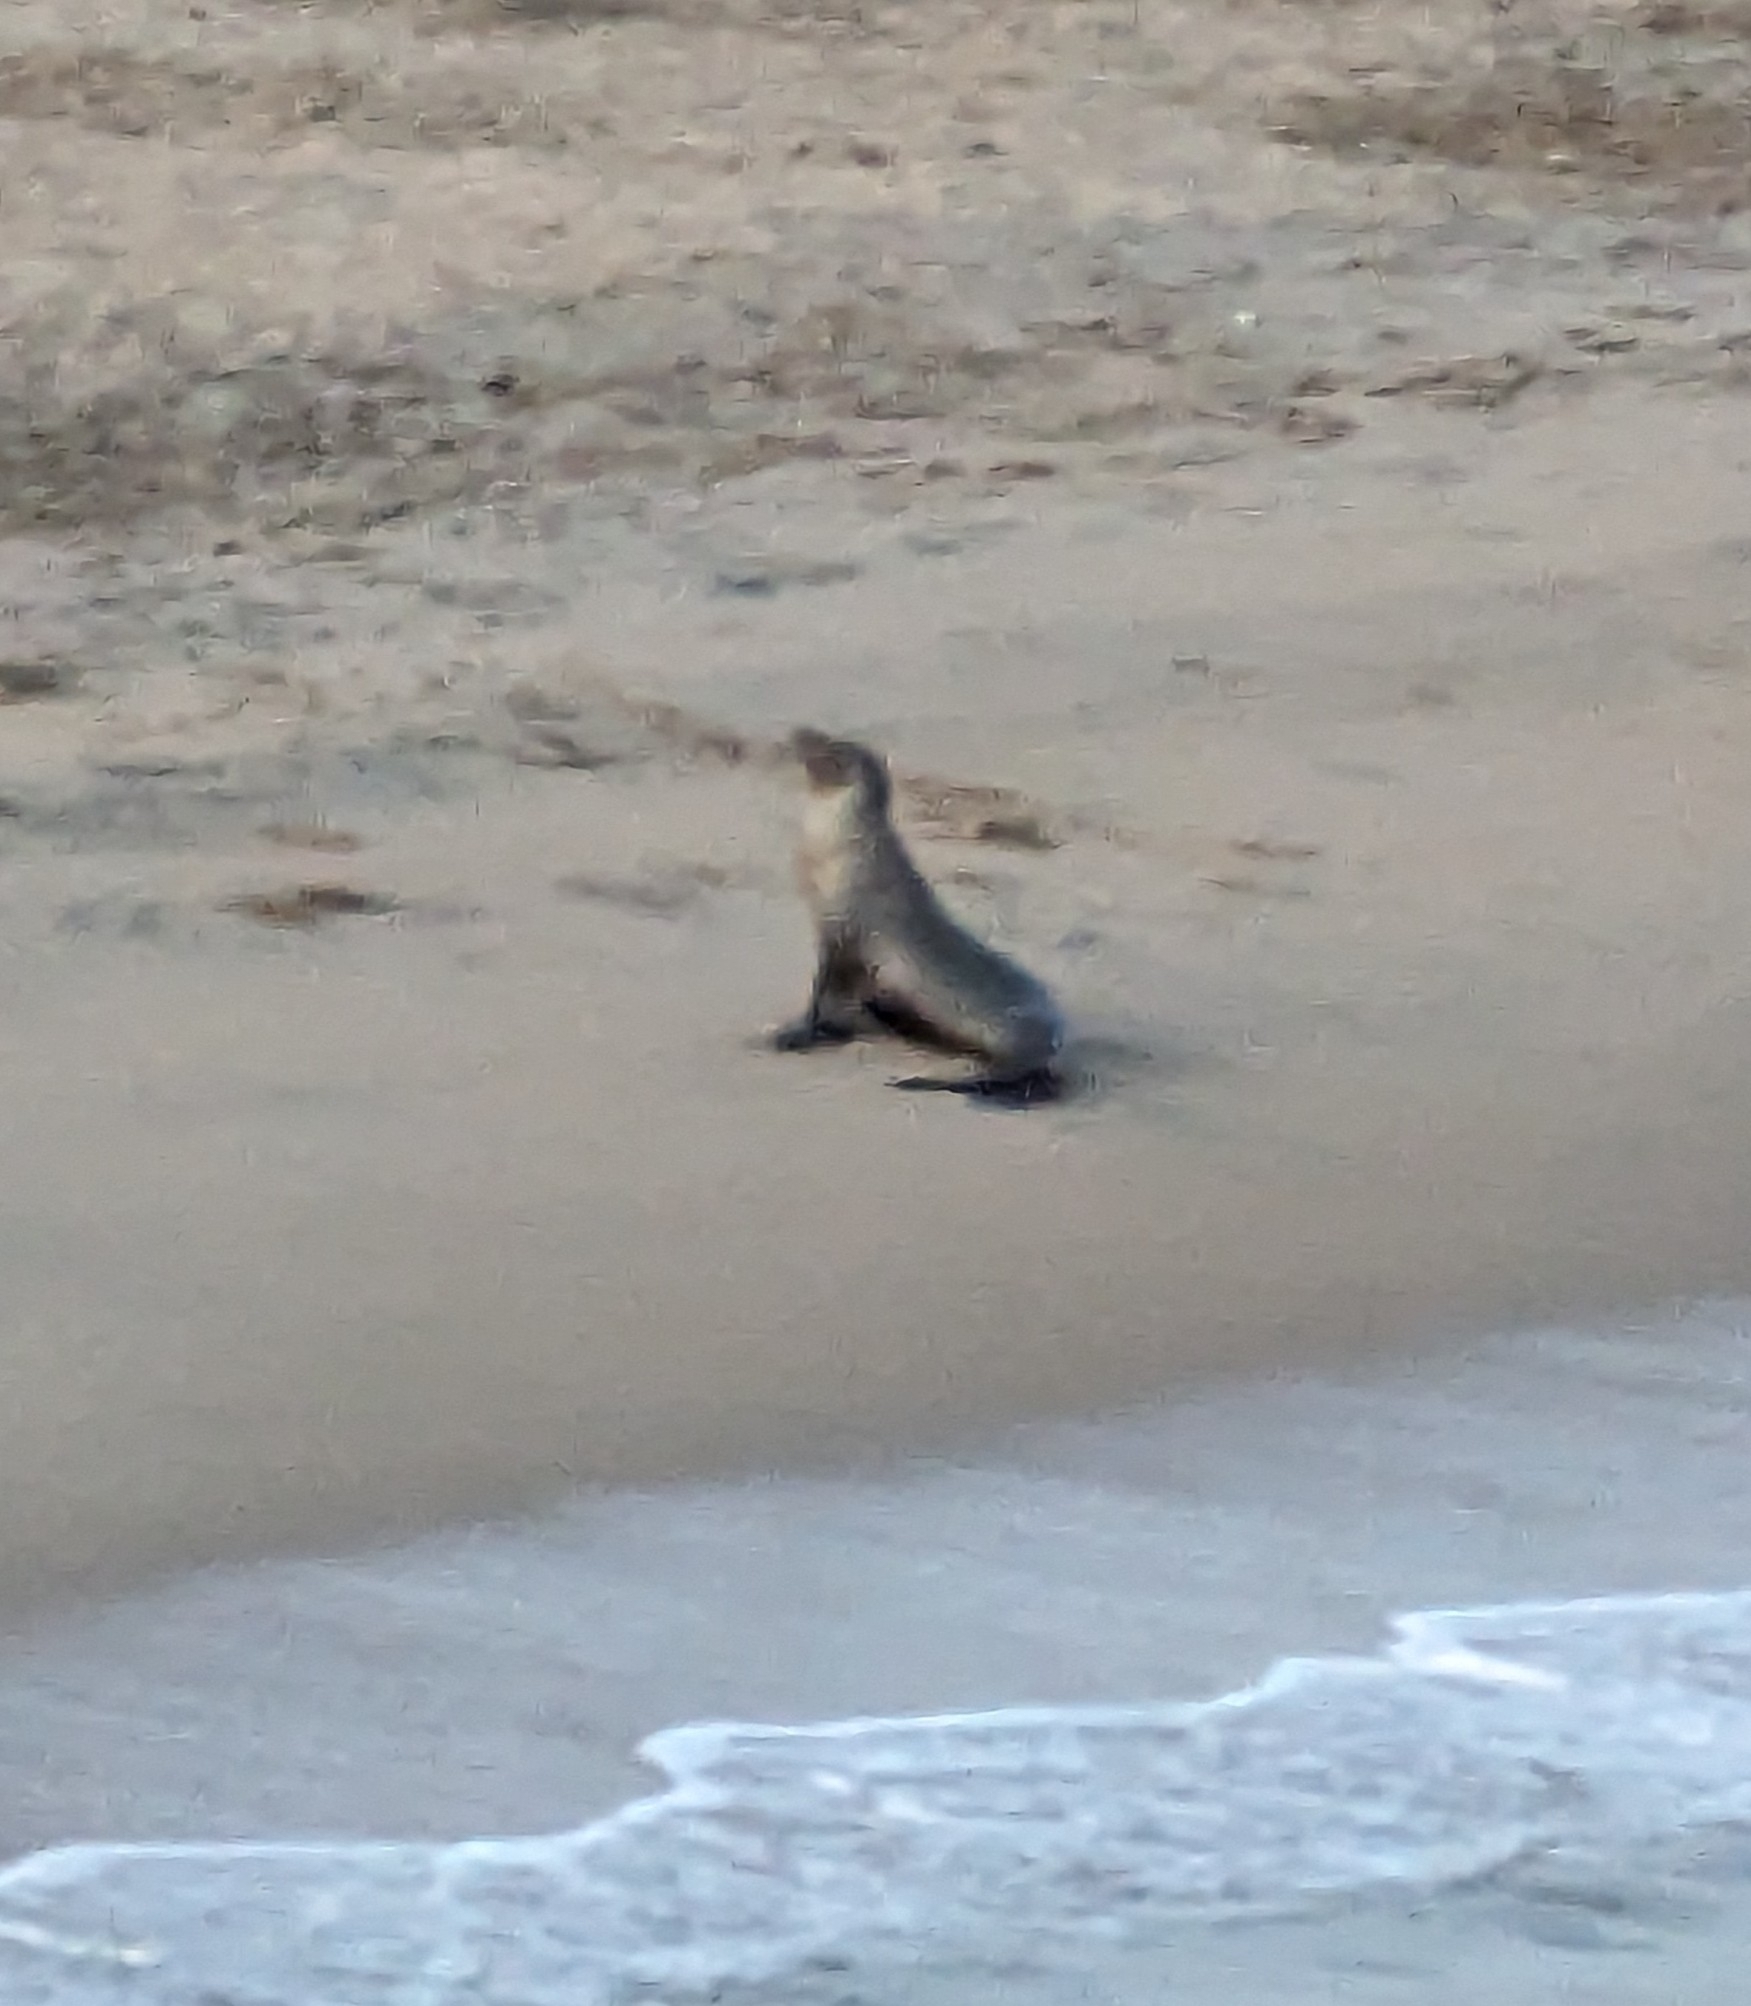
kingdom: Animalia
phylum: Chordata
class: Mammalia
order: Carnivora
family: Otariidae
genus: Zalophus
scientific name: Zalophus californianus
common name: California sea lion
